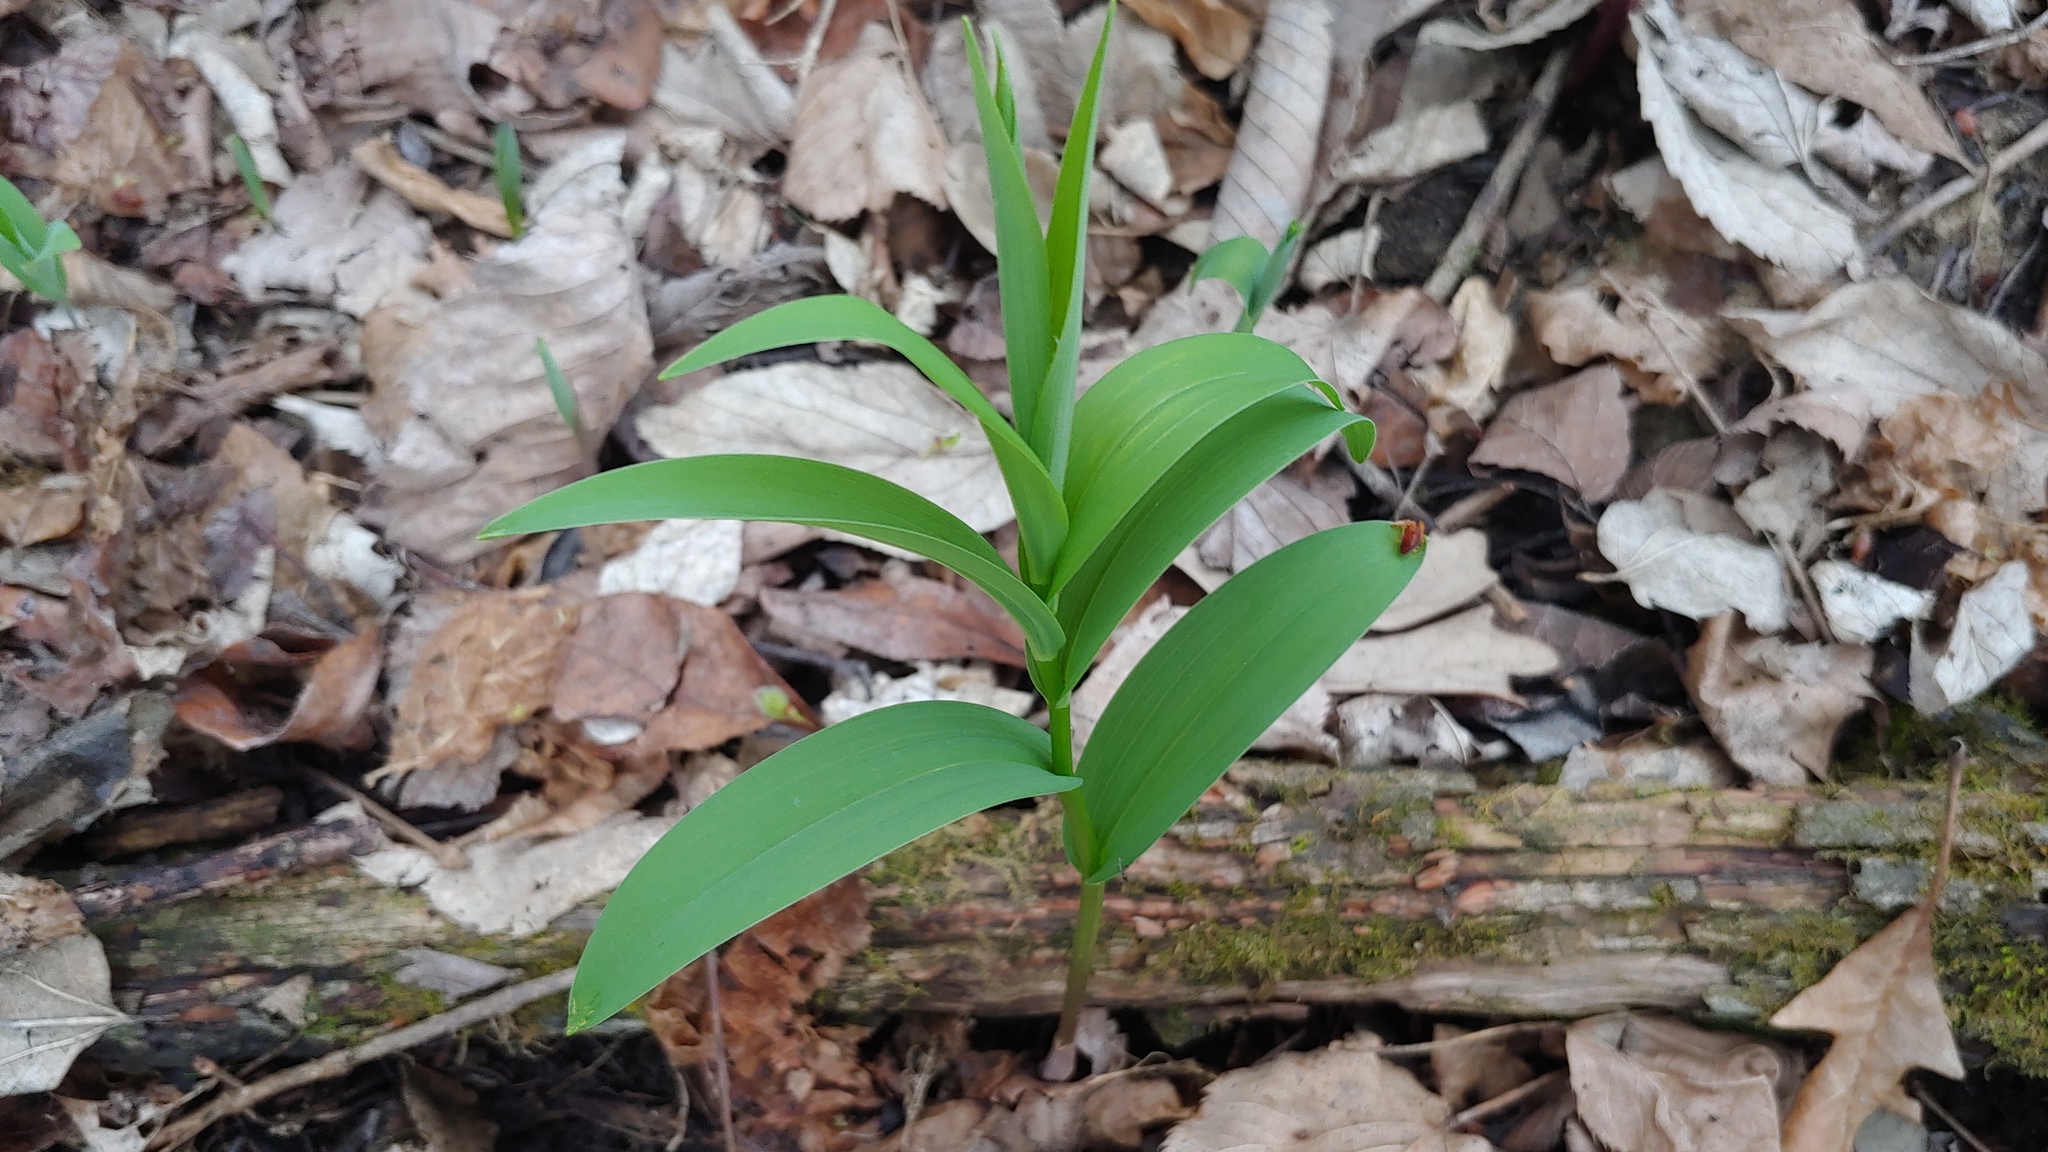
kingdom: Plantae
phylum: Tracheophyta
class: Liliopsida
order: Asparagales
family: Asparagaceae
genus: Maianthemum
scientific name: Maianthemum stellatum
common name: Little false solomon's seal
